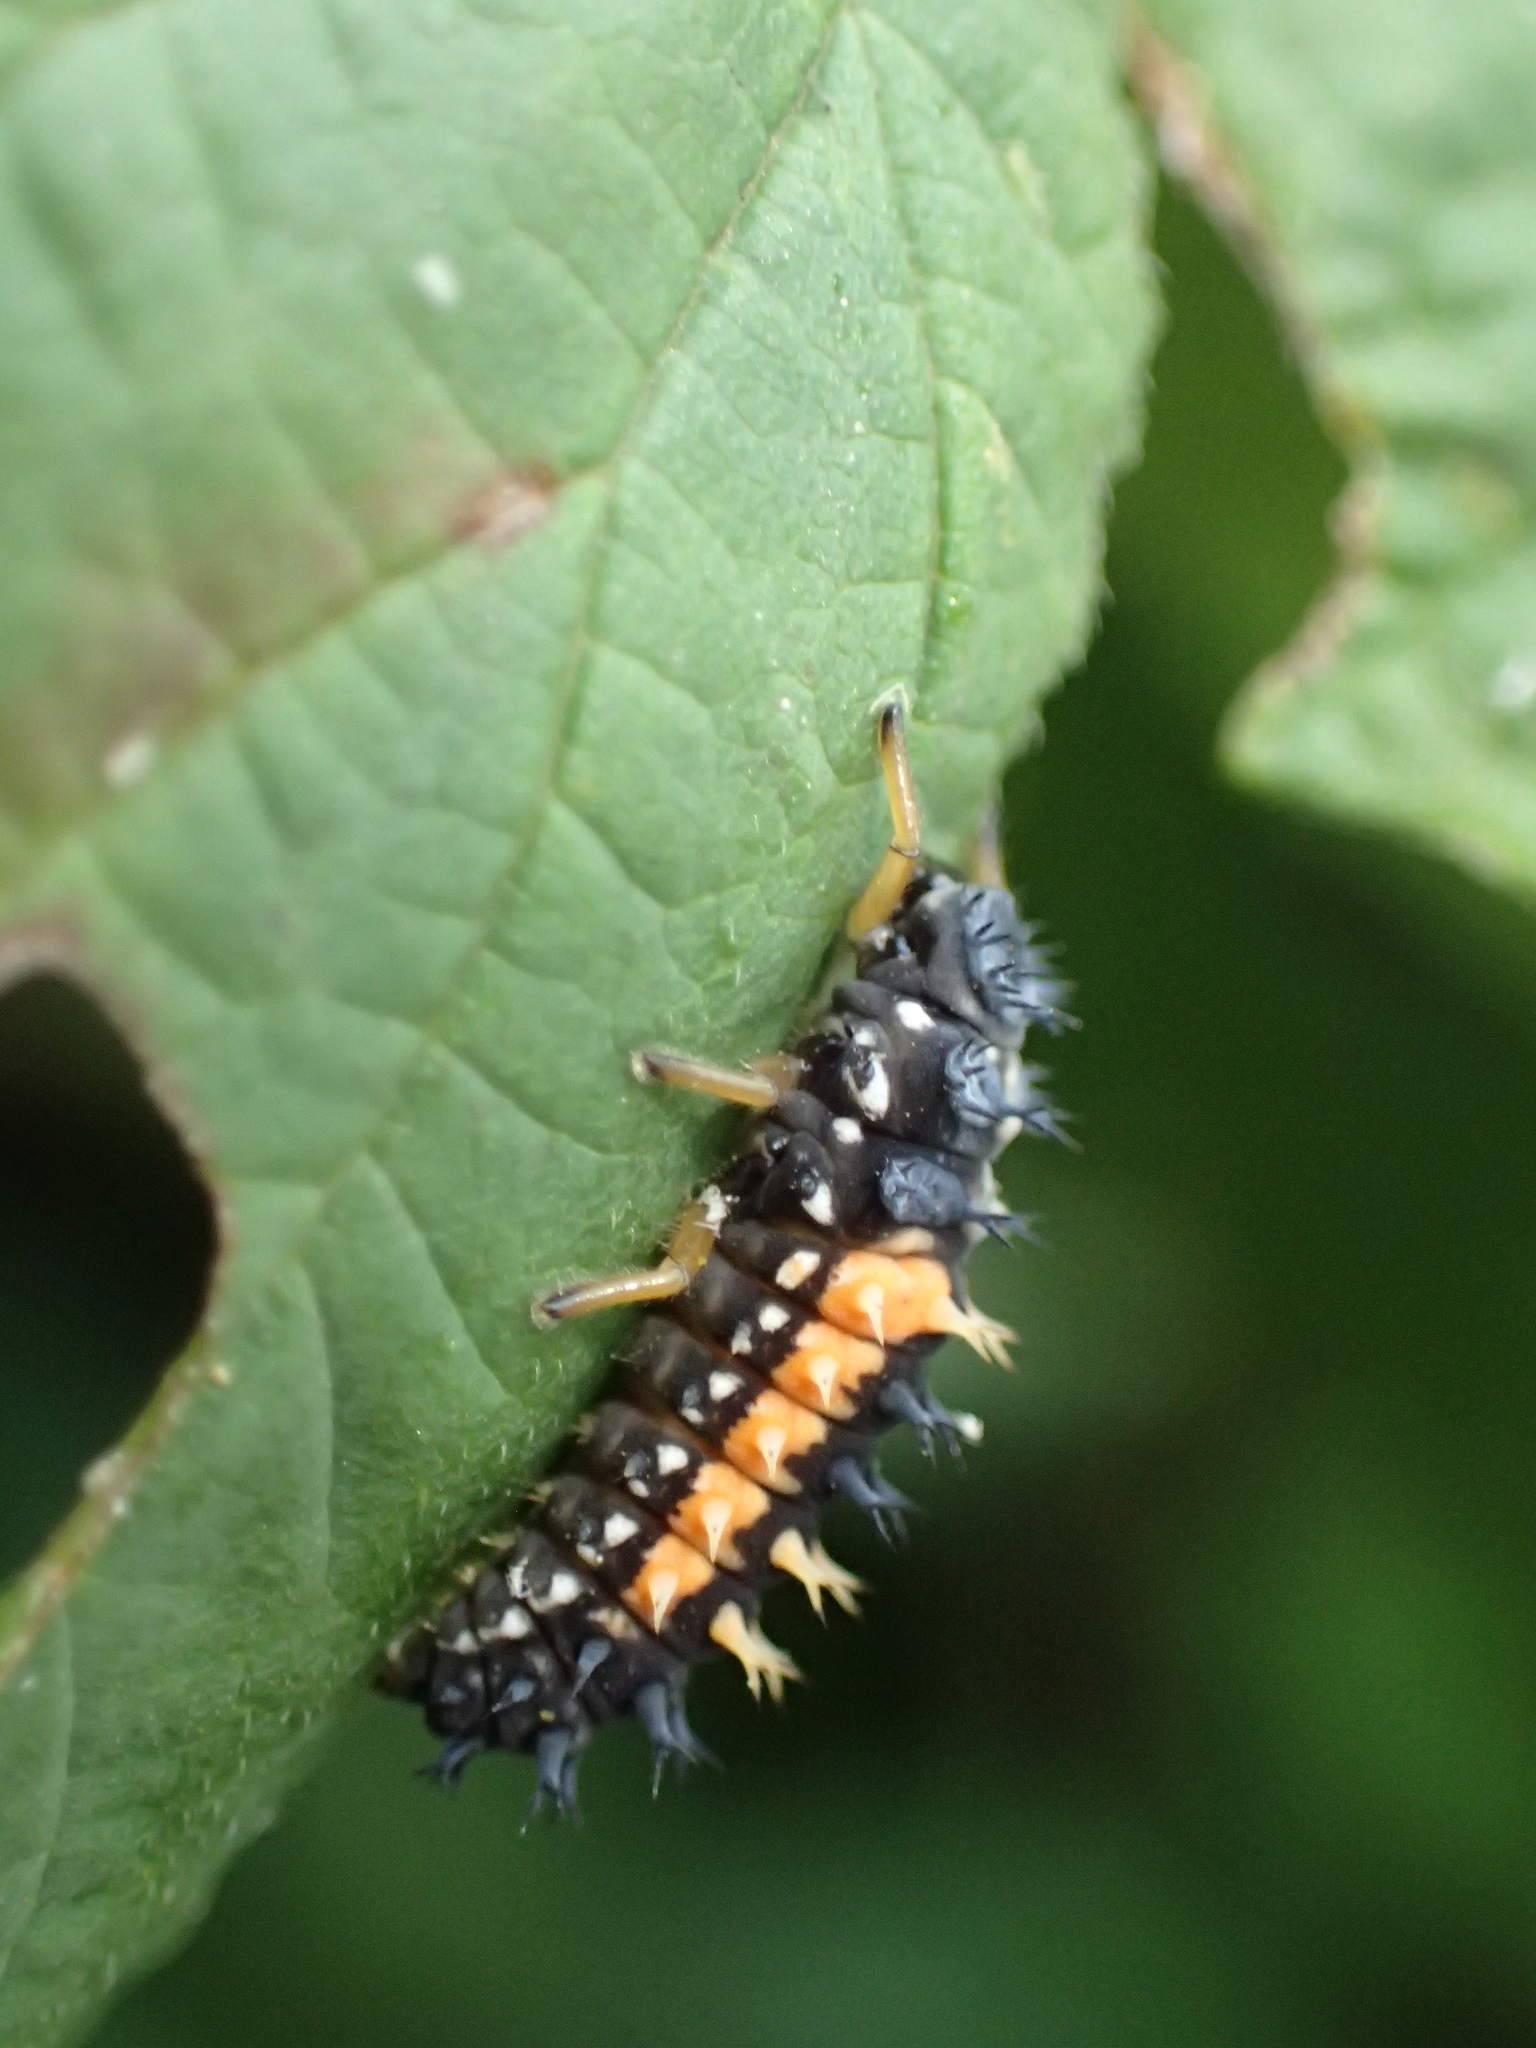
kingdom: Animalia
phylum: Arthropoda
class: Insecta
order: Coleoptera
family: Coccinellidae
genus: Harmonia
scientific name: Harmonia axyridis
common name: Harlequin ladybird
